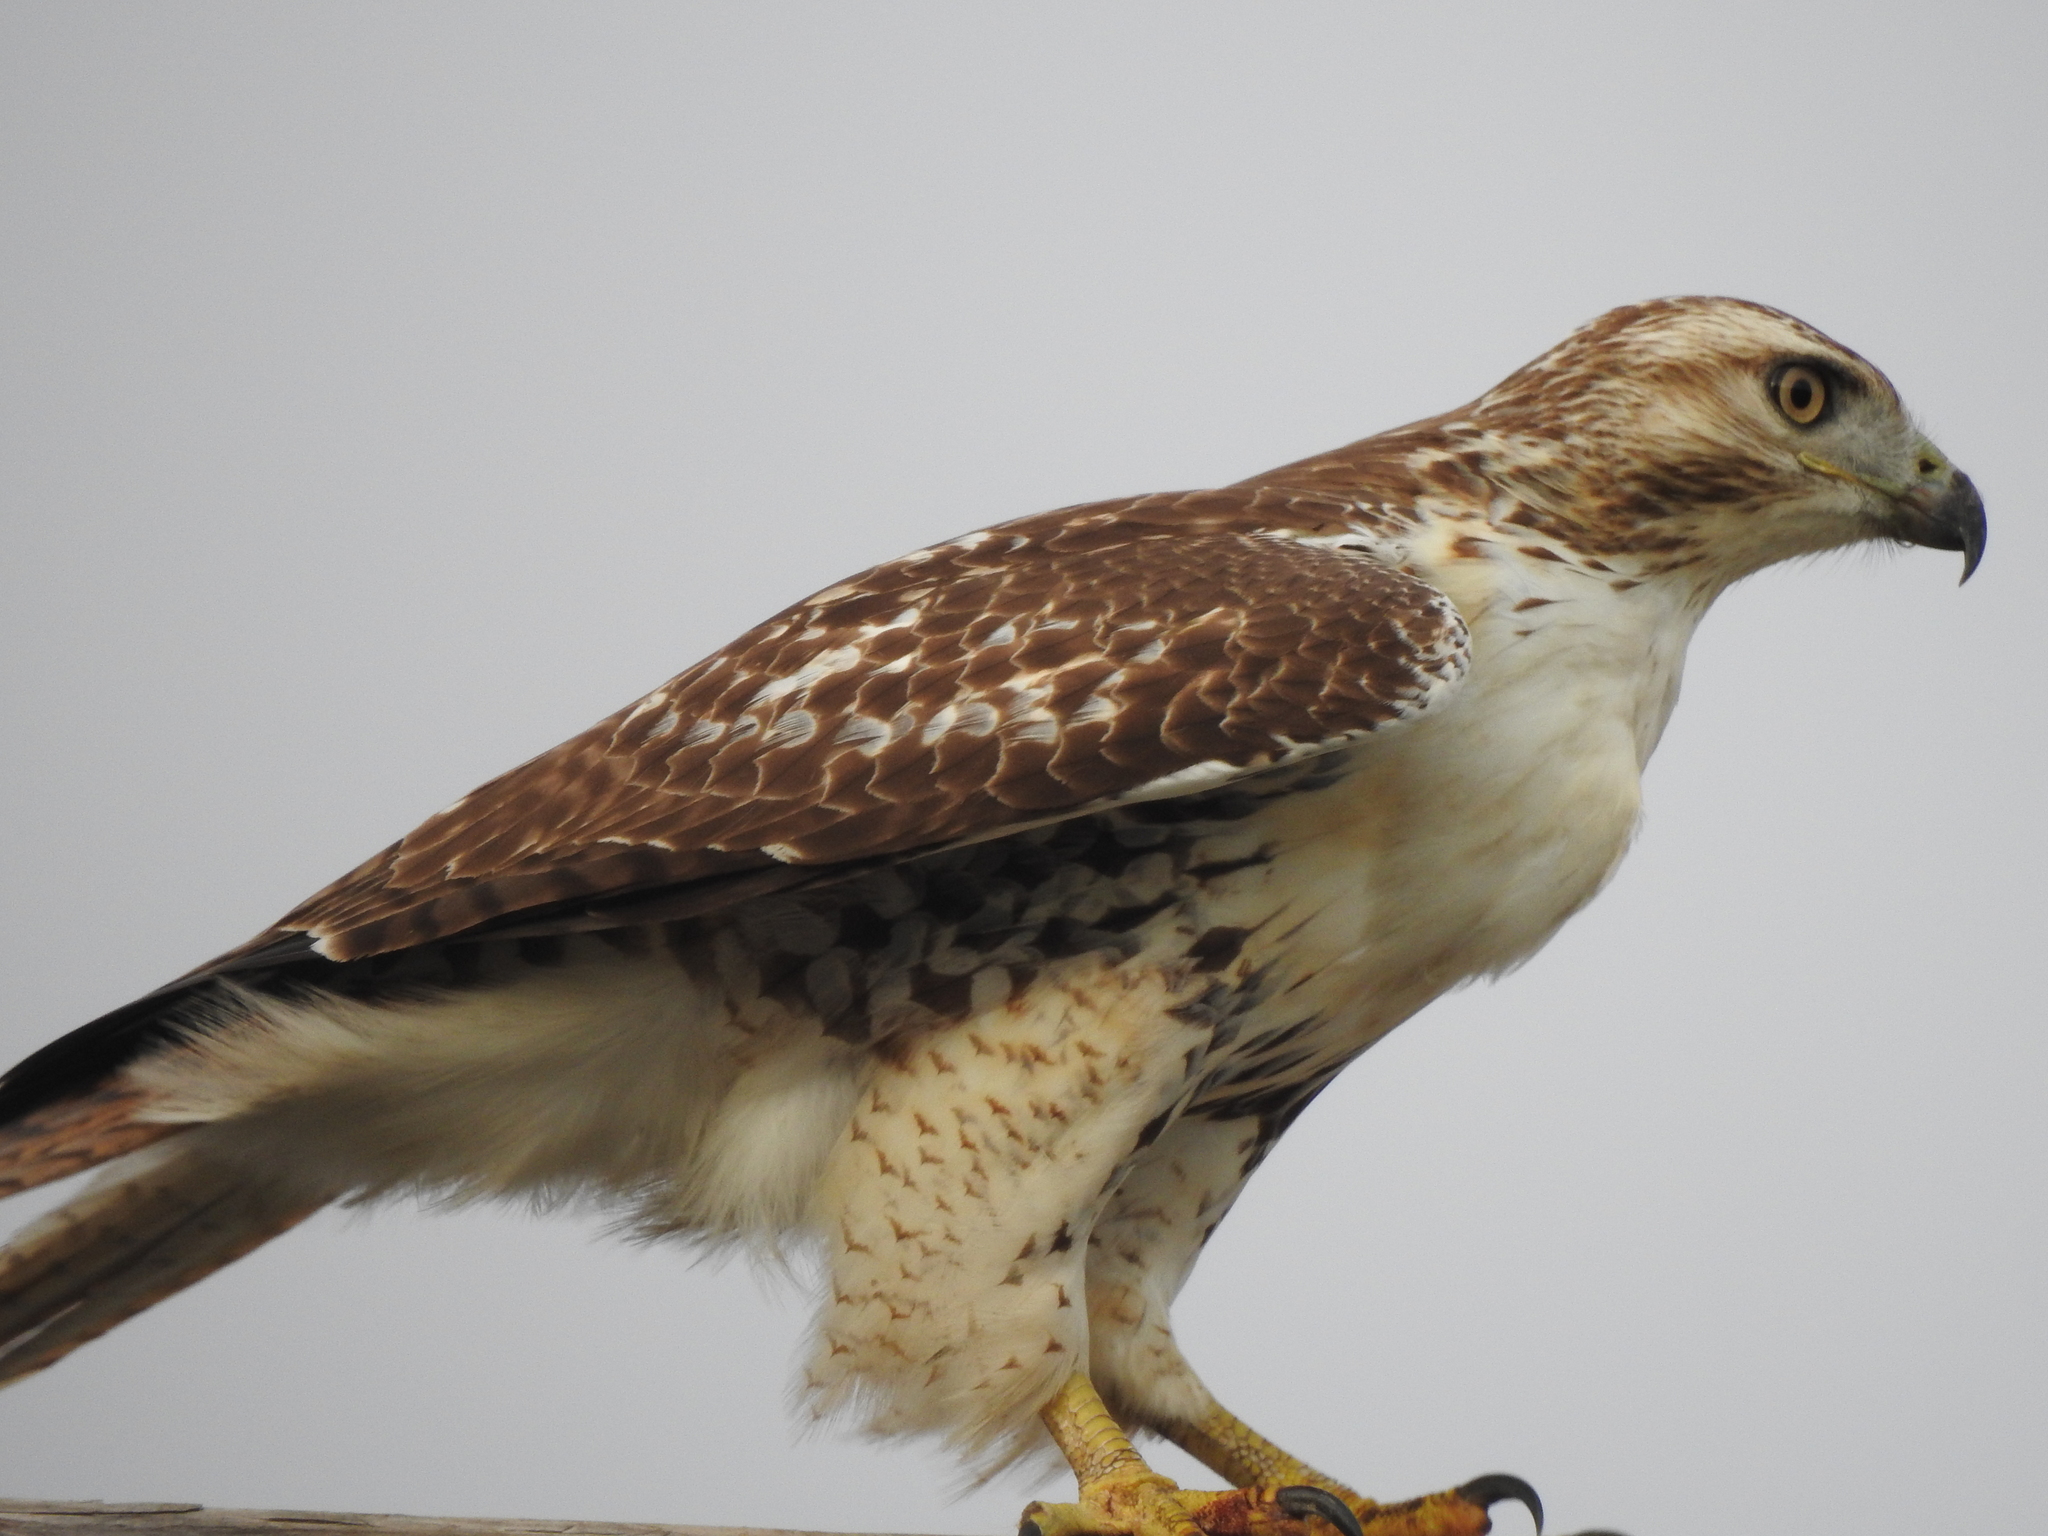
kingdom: Animalia
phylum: Chordata
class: Aves
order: Accipitriformes
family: Accipitridae
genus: Buteo
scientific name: Buteo jamaicensis
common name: Red-tailed hawk
